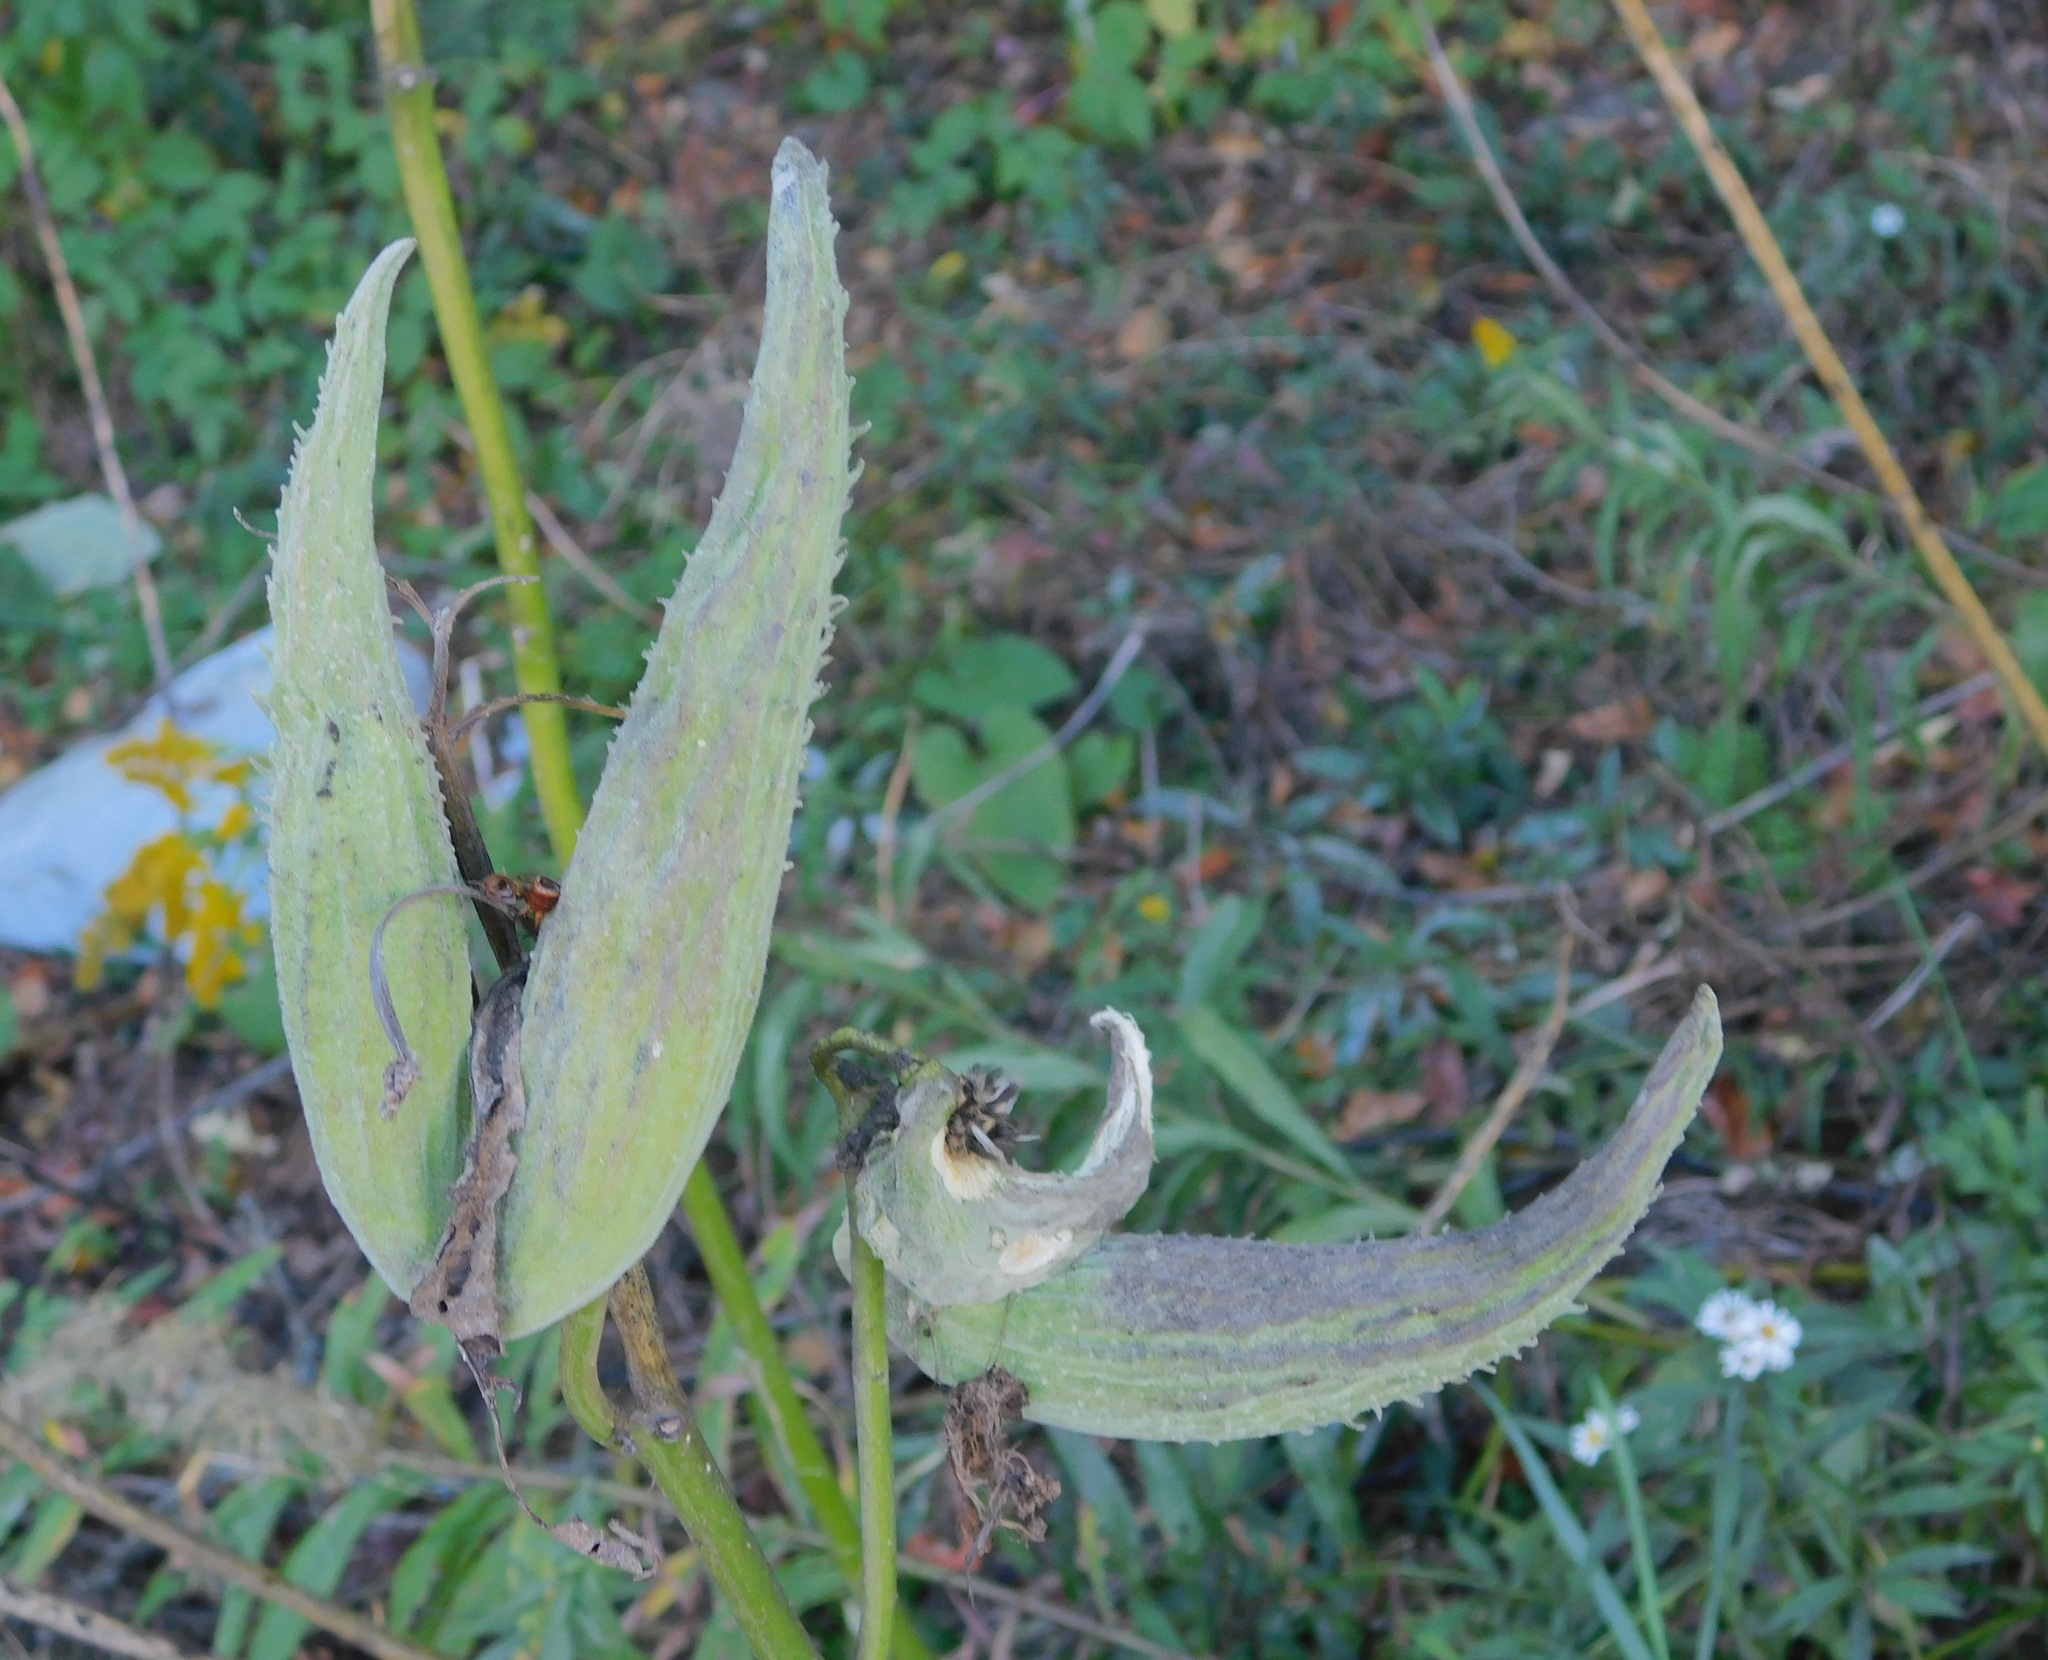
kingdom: Plantae
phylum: Tracheophyta
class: Magnoliopsida
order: Gentianales
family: Apocynaceae
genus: Asclepias
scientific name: Asclepias syriaca
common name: Common milkweed
